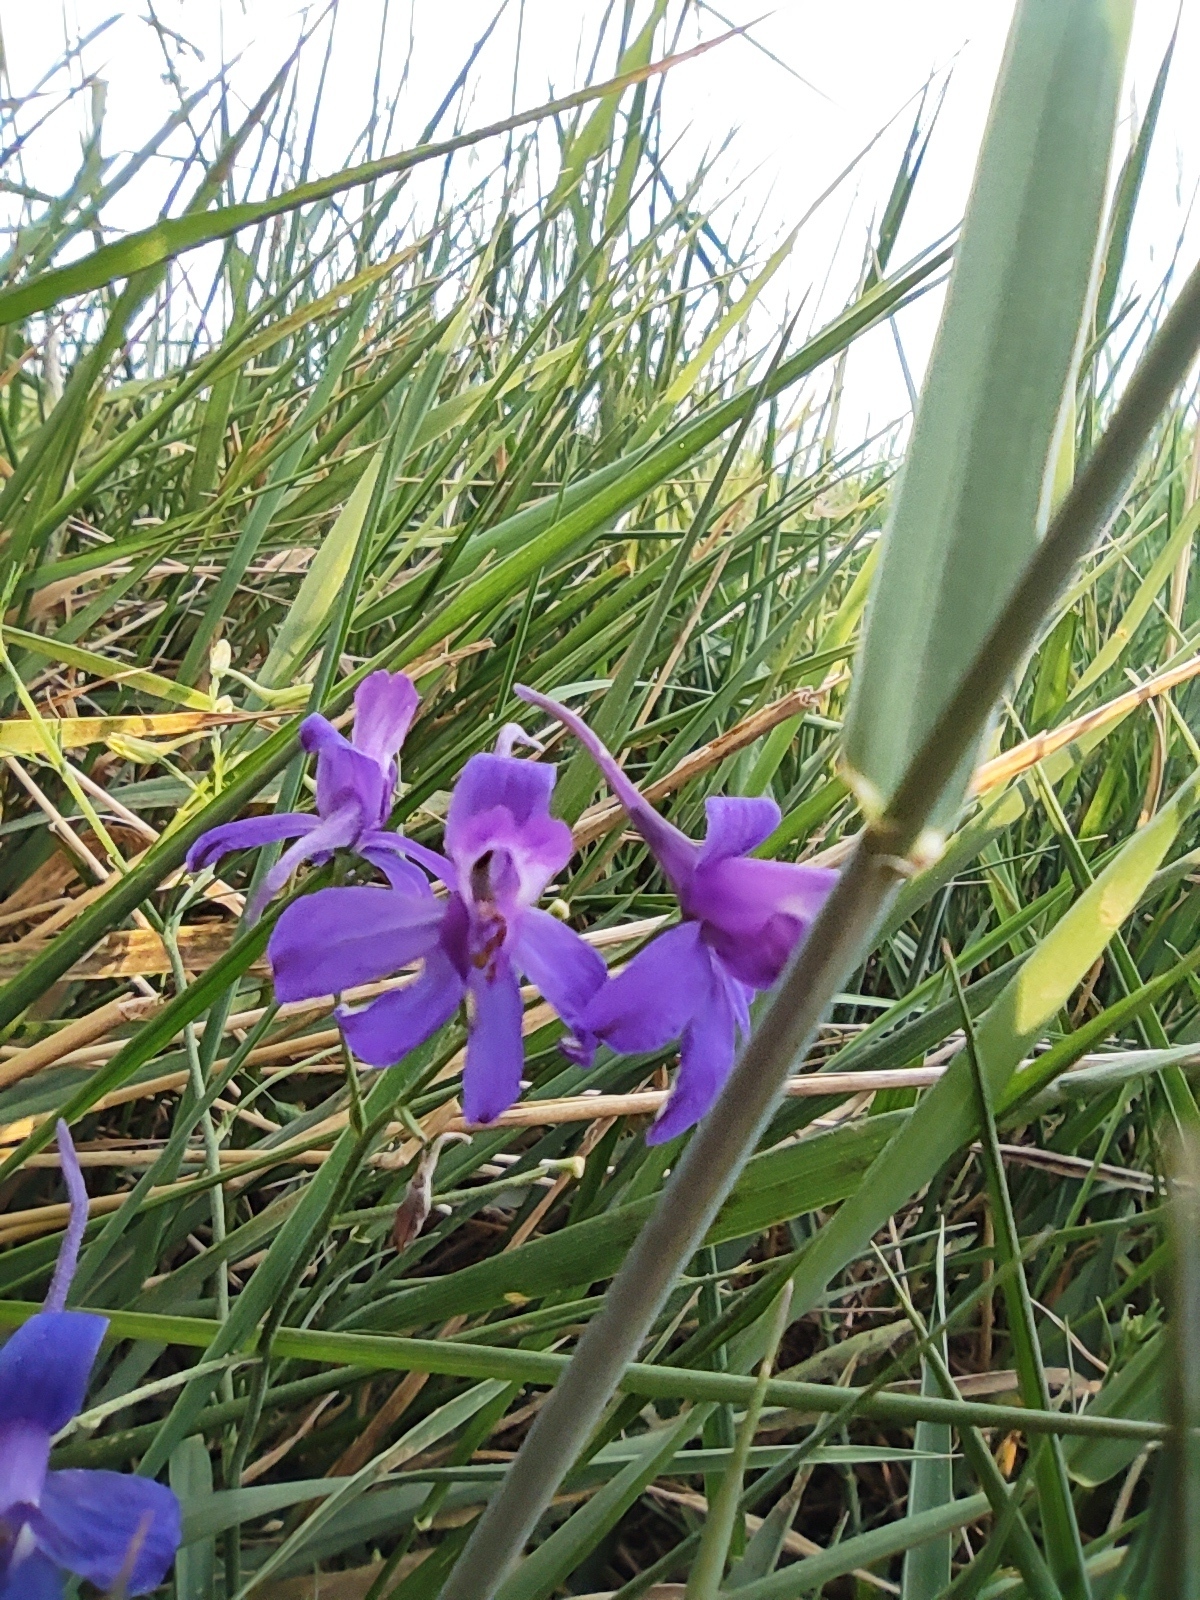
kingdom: Plantae
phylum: Tracheophyta
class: Magnoliopsida
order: Ranunculales
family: Ranunculaceae
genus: Delphinium
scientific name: Delphinium consolida
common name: Branching larkspur
